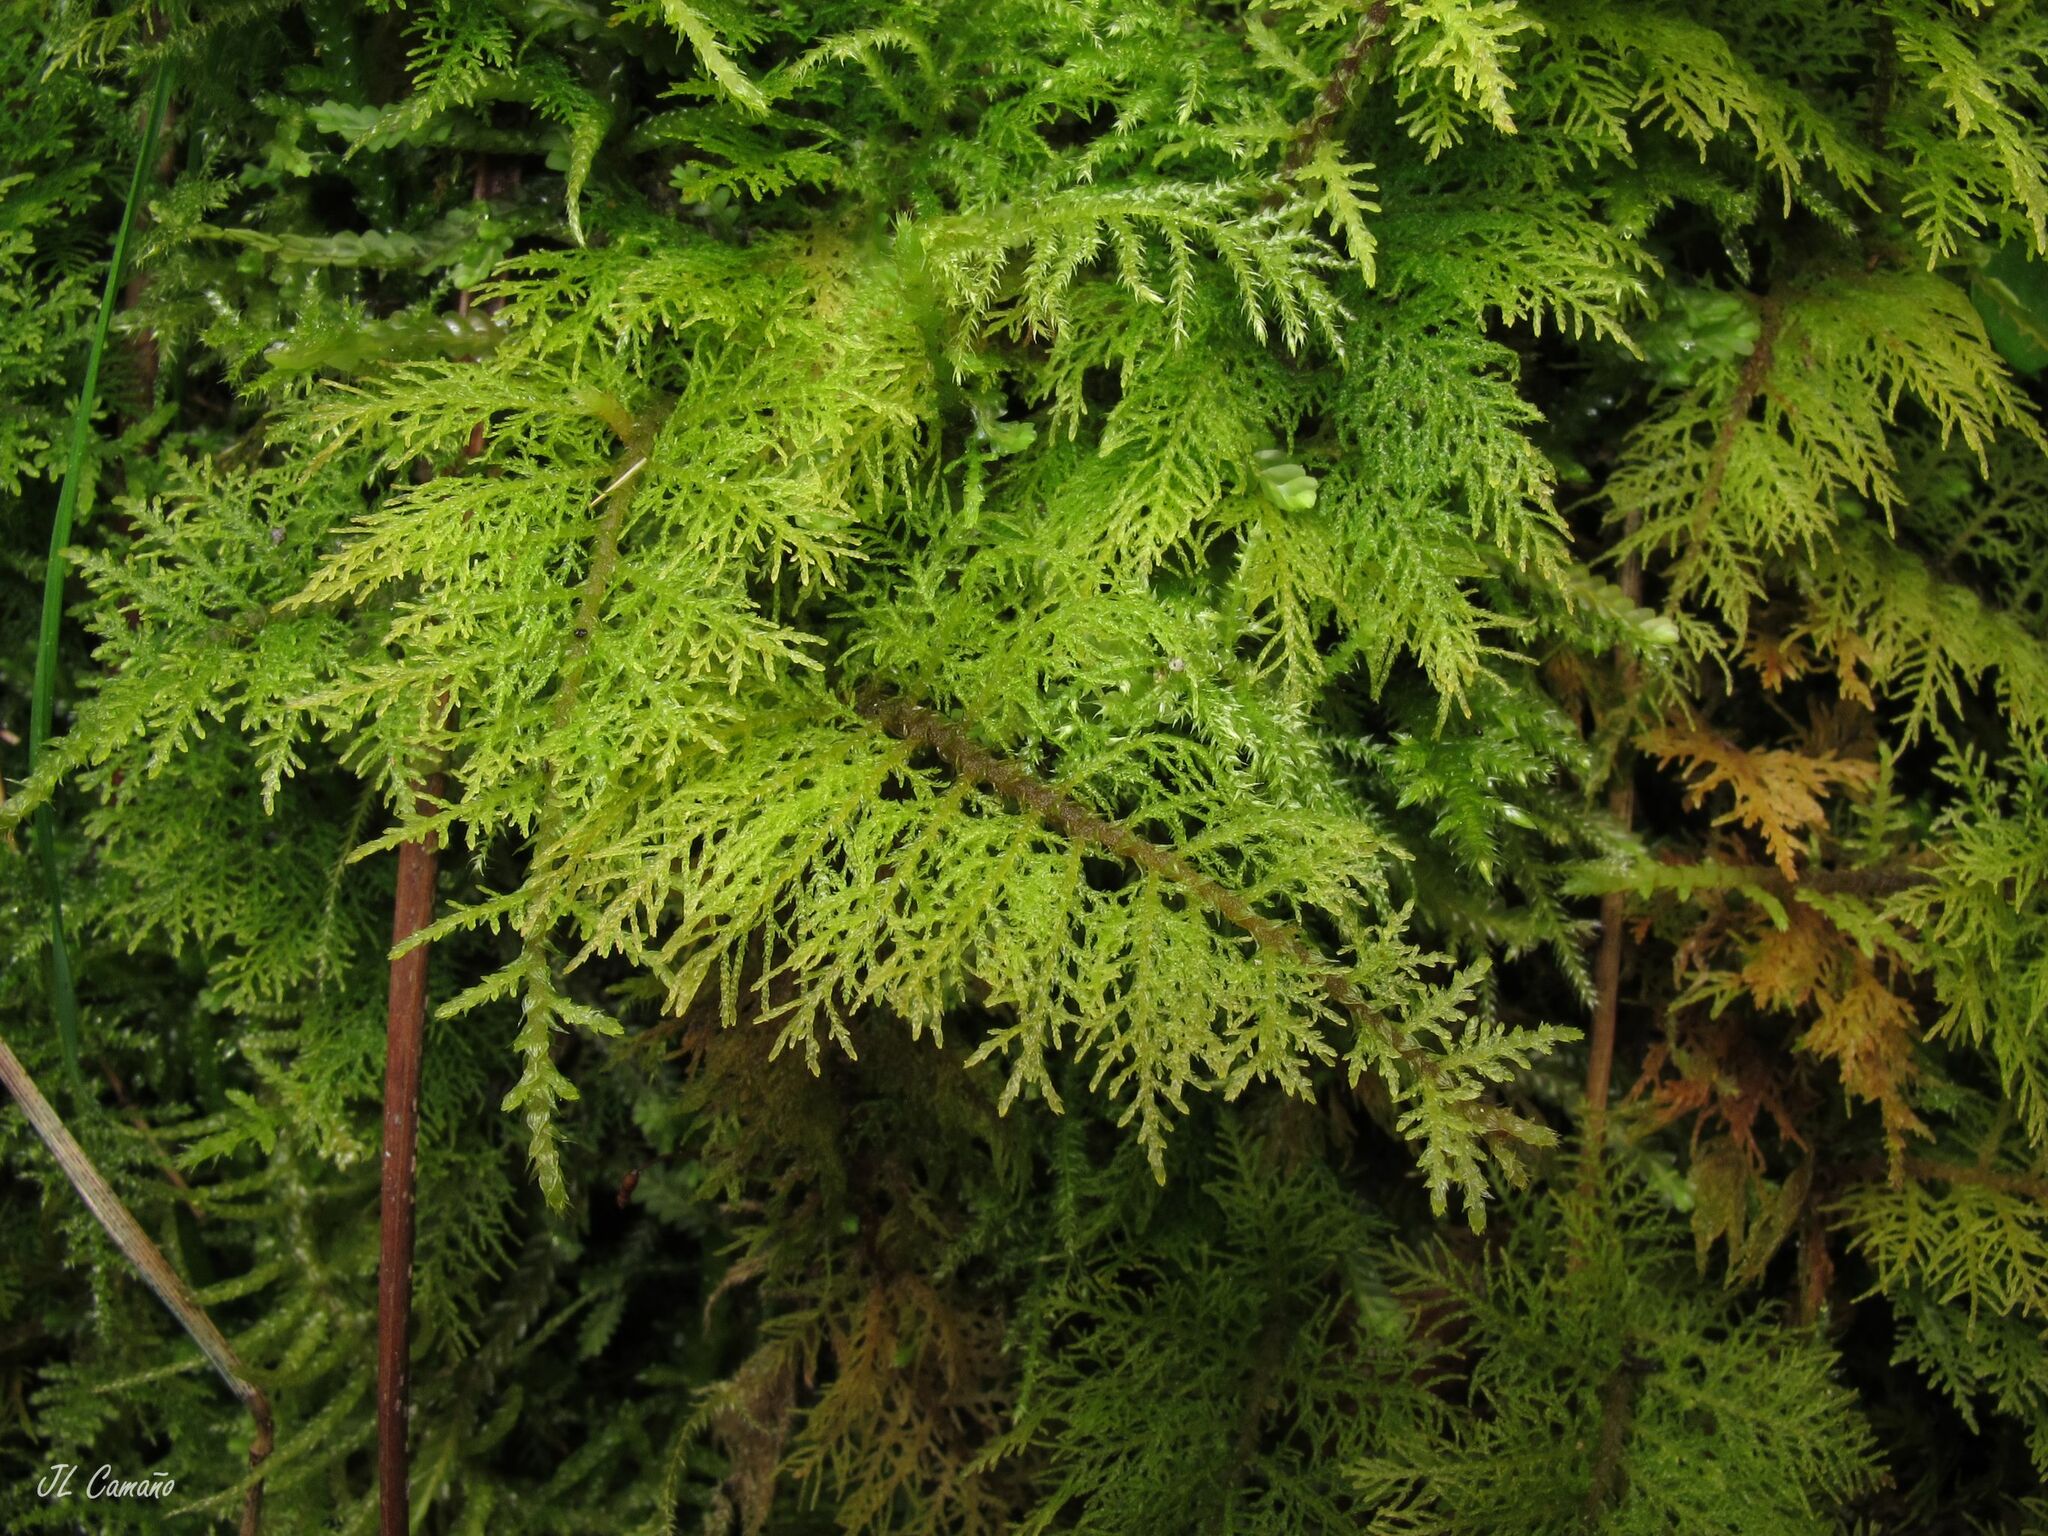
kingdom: Plantae
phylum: Bryophyta
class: Bryopsida
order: Hypnales
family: Thuidiaceae
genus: Thuidium
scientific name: Thuidium tamariscinum
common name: Common tamarisk-moss
